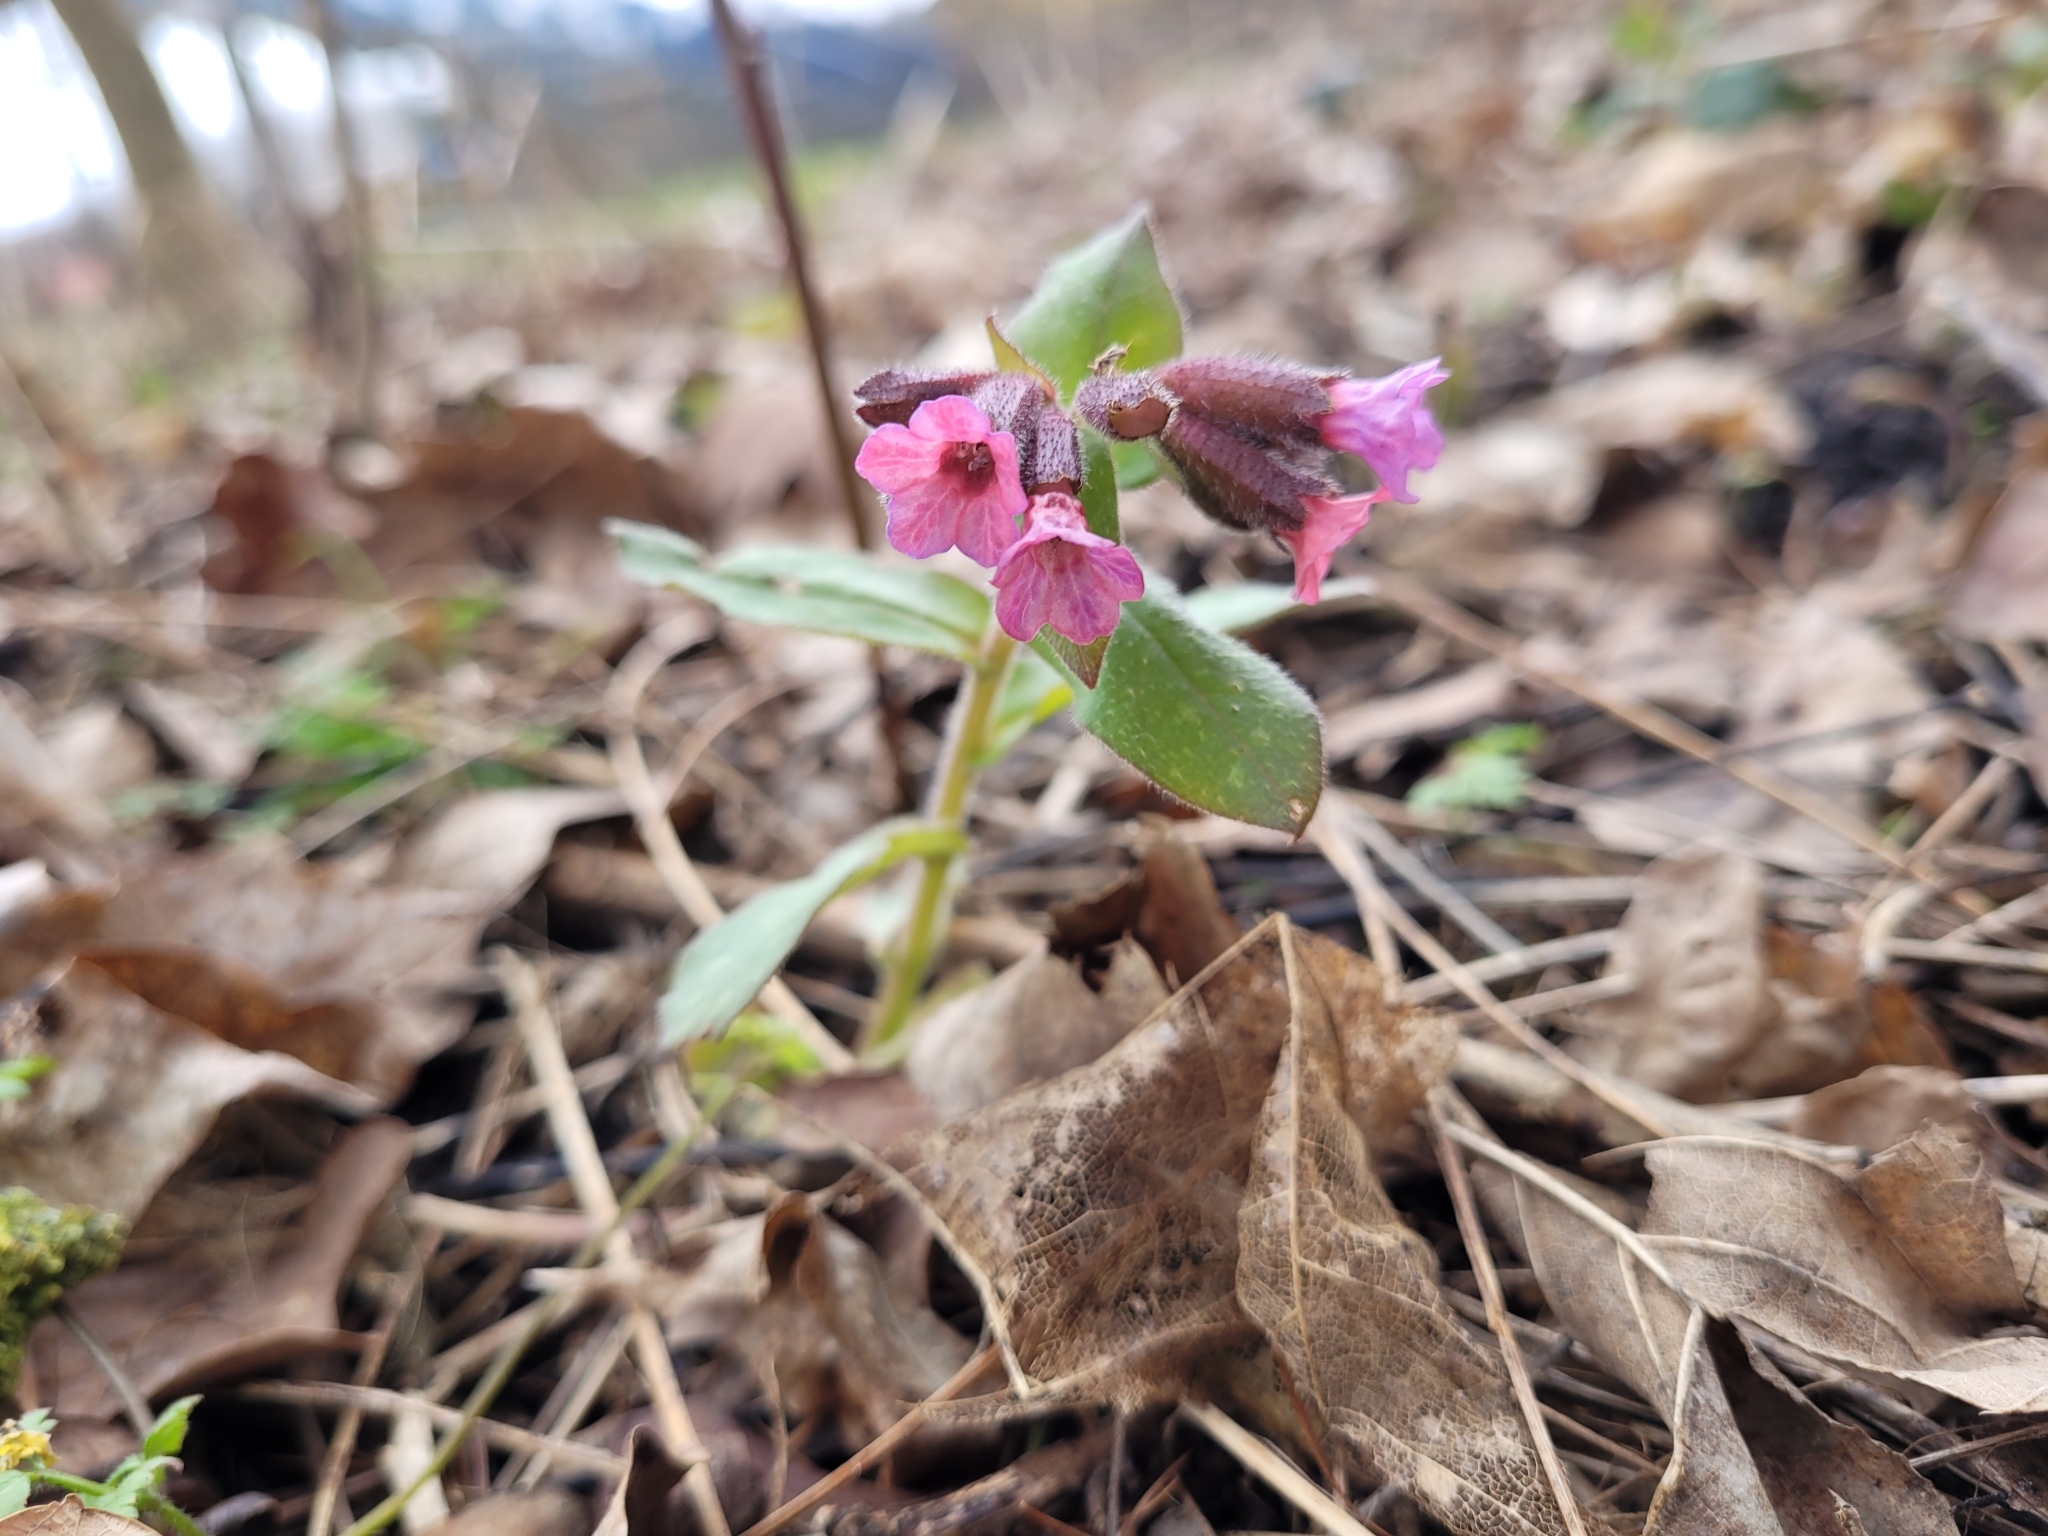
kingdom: Plantae
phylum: Tracheophyta
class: Magnoliopsida
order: Boraginales
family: Boraginaceae
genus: Pulmonaria
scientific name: Pulmonaria obscura
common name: Suffolk lungwort
